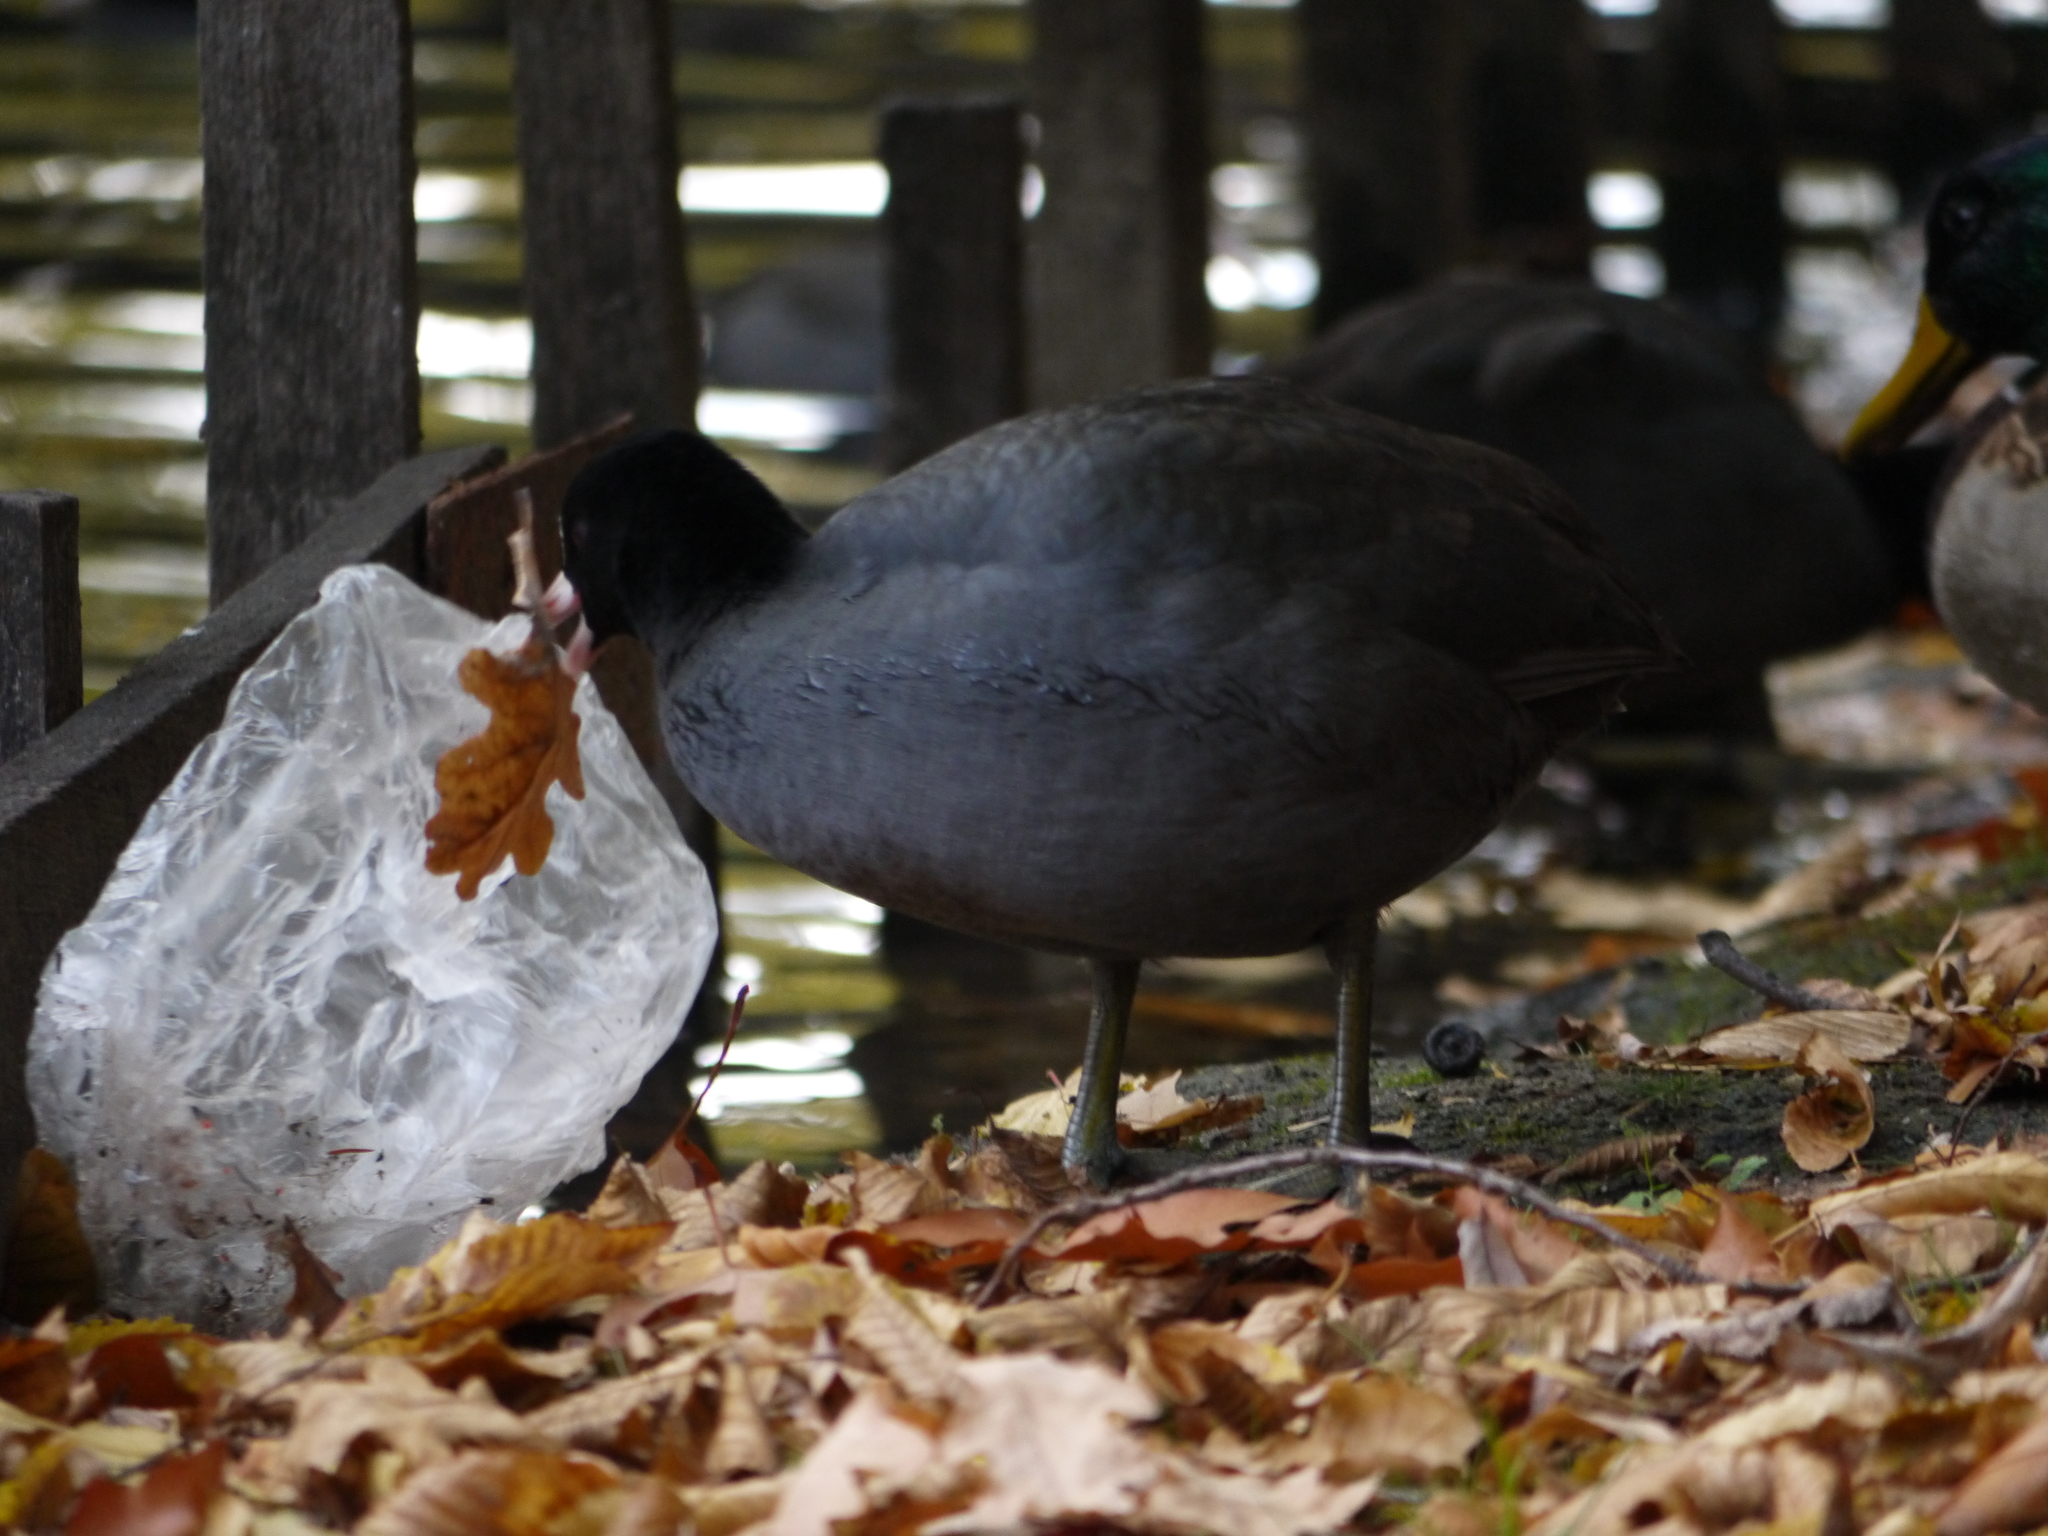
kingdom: Animalia
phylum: Chordata
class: Aves
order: Gruiformes
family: Rallidae
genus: Fulica
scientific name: Fulica atra
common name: Eurasian coot
